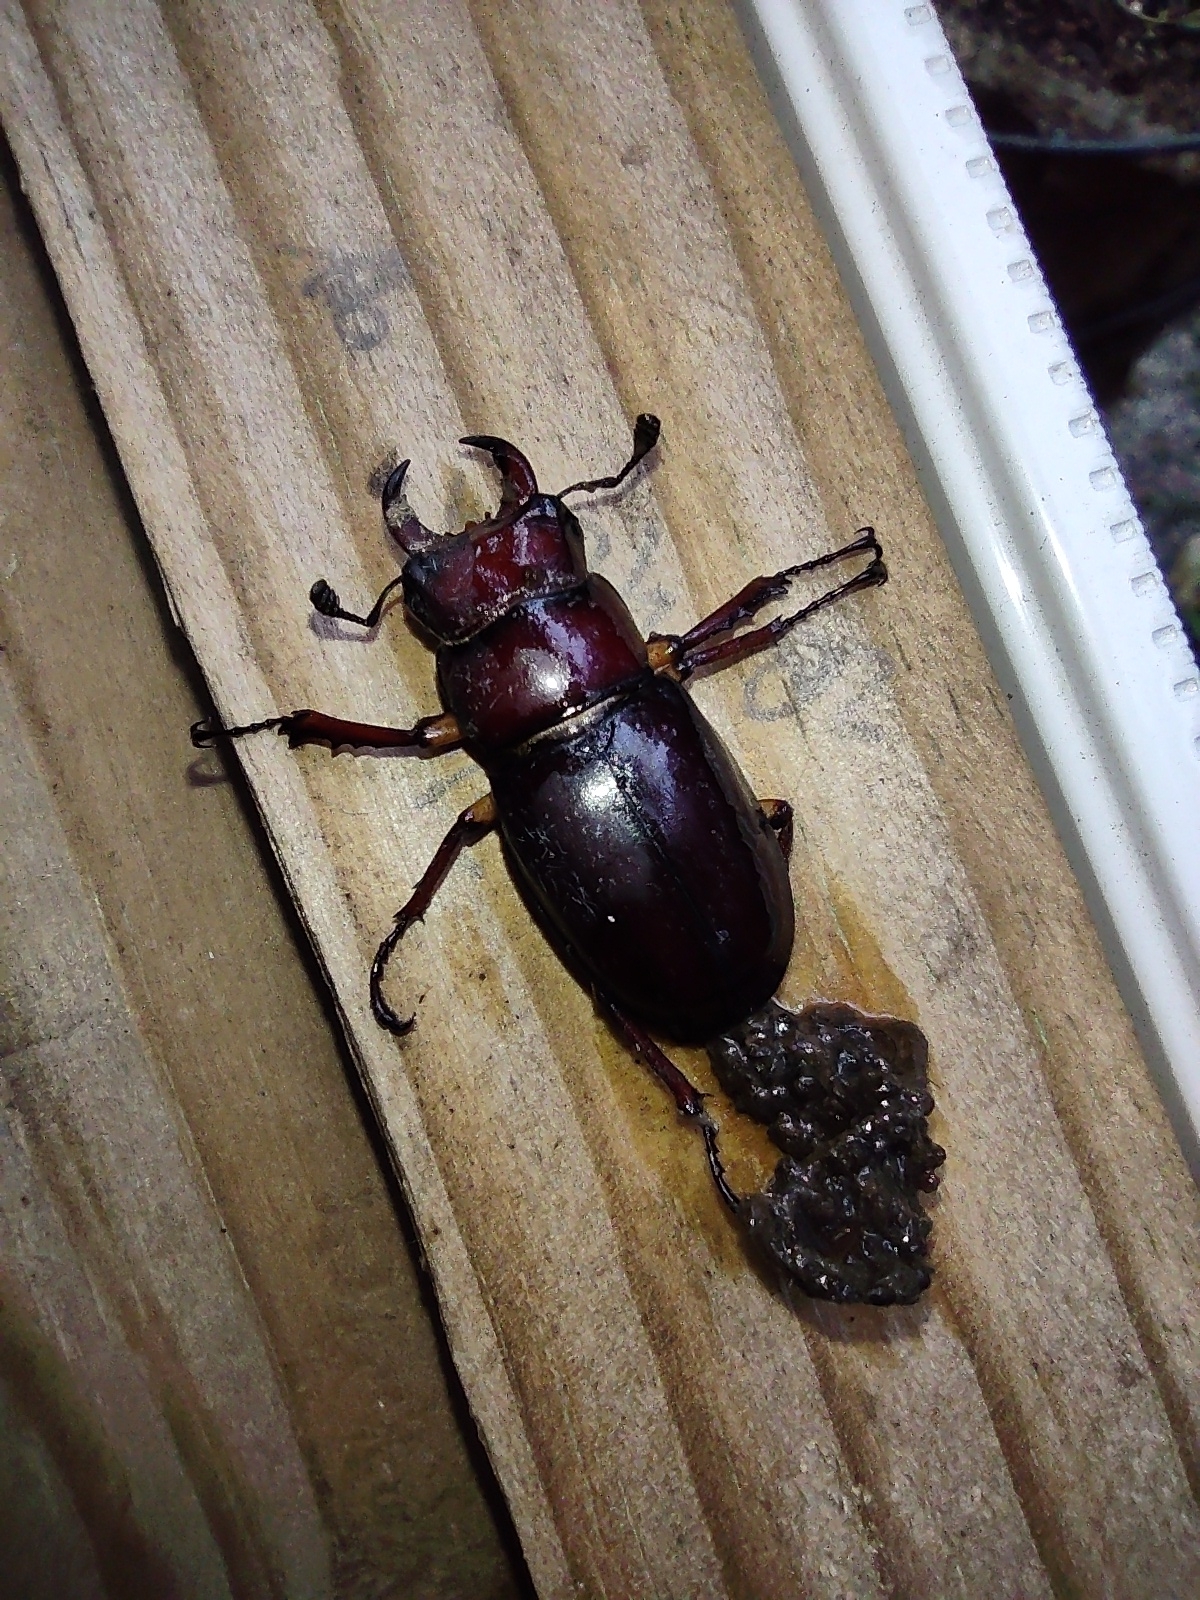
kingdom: Animalia
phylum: Arthropoda
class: Insecta
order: Coleoptera
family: Lucanidae
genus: Lucanus
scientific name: Lucanus capreolus
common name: Stag beetle
